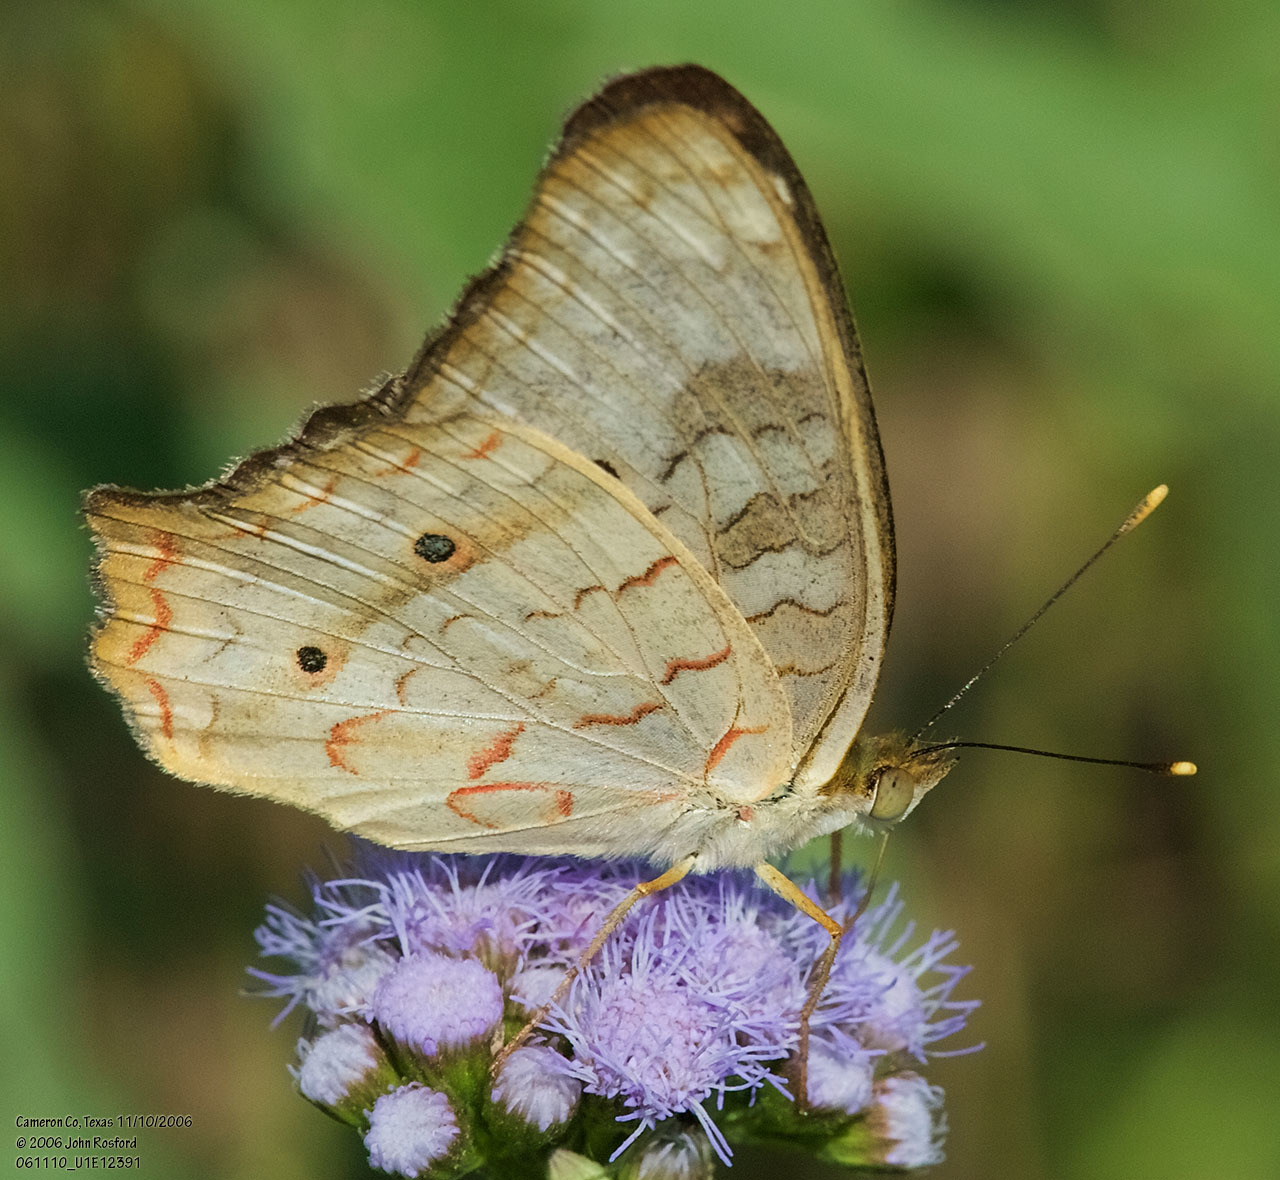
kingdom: Animalia
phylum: Arthropoda
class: Insecta
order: Lepidoptera
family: Nymphalidae
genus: Anartia
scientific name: Anartia jatrophae
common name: White peacock
